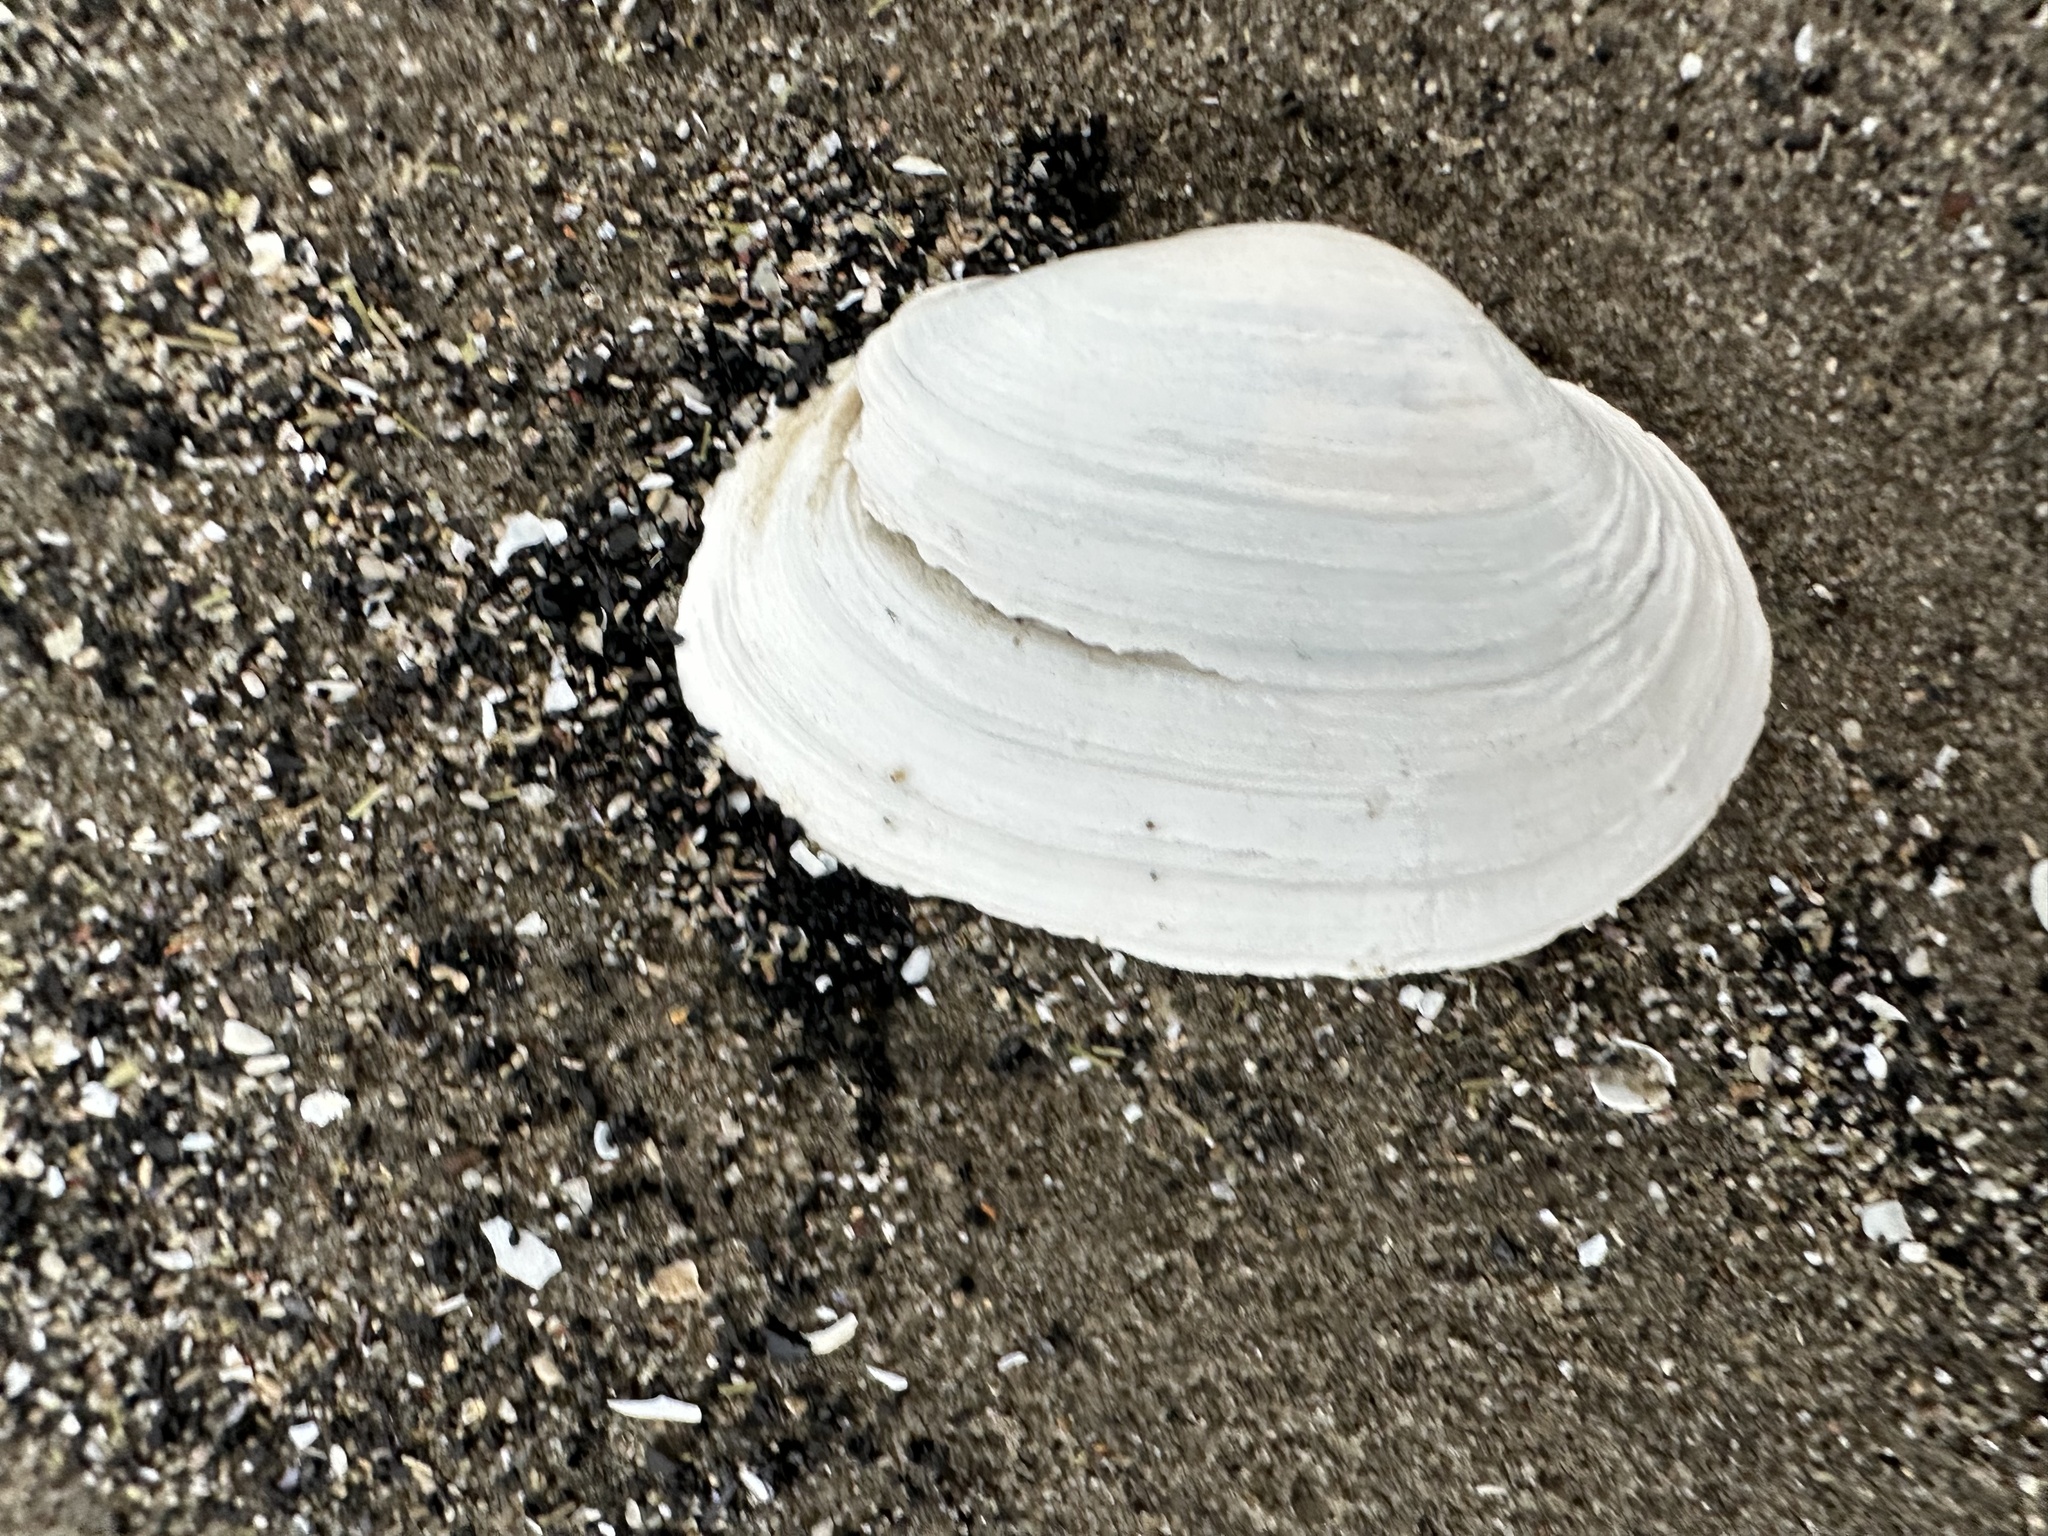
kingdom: Animalia
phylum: Mollusca
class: Bivalvia
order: Myida
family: Myidae
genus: Mya
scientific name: Mya arenaria
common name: Soft-shelled clam
